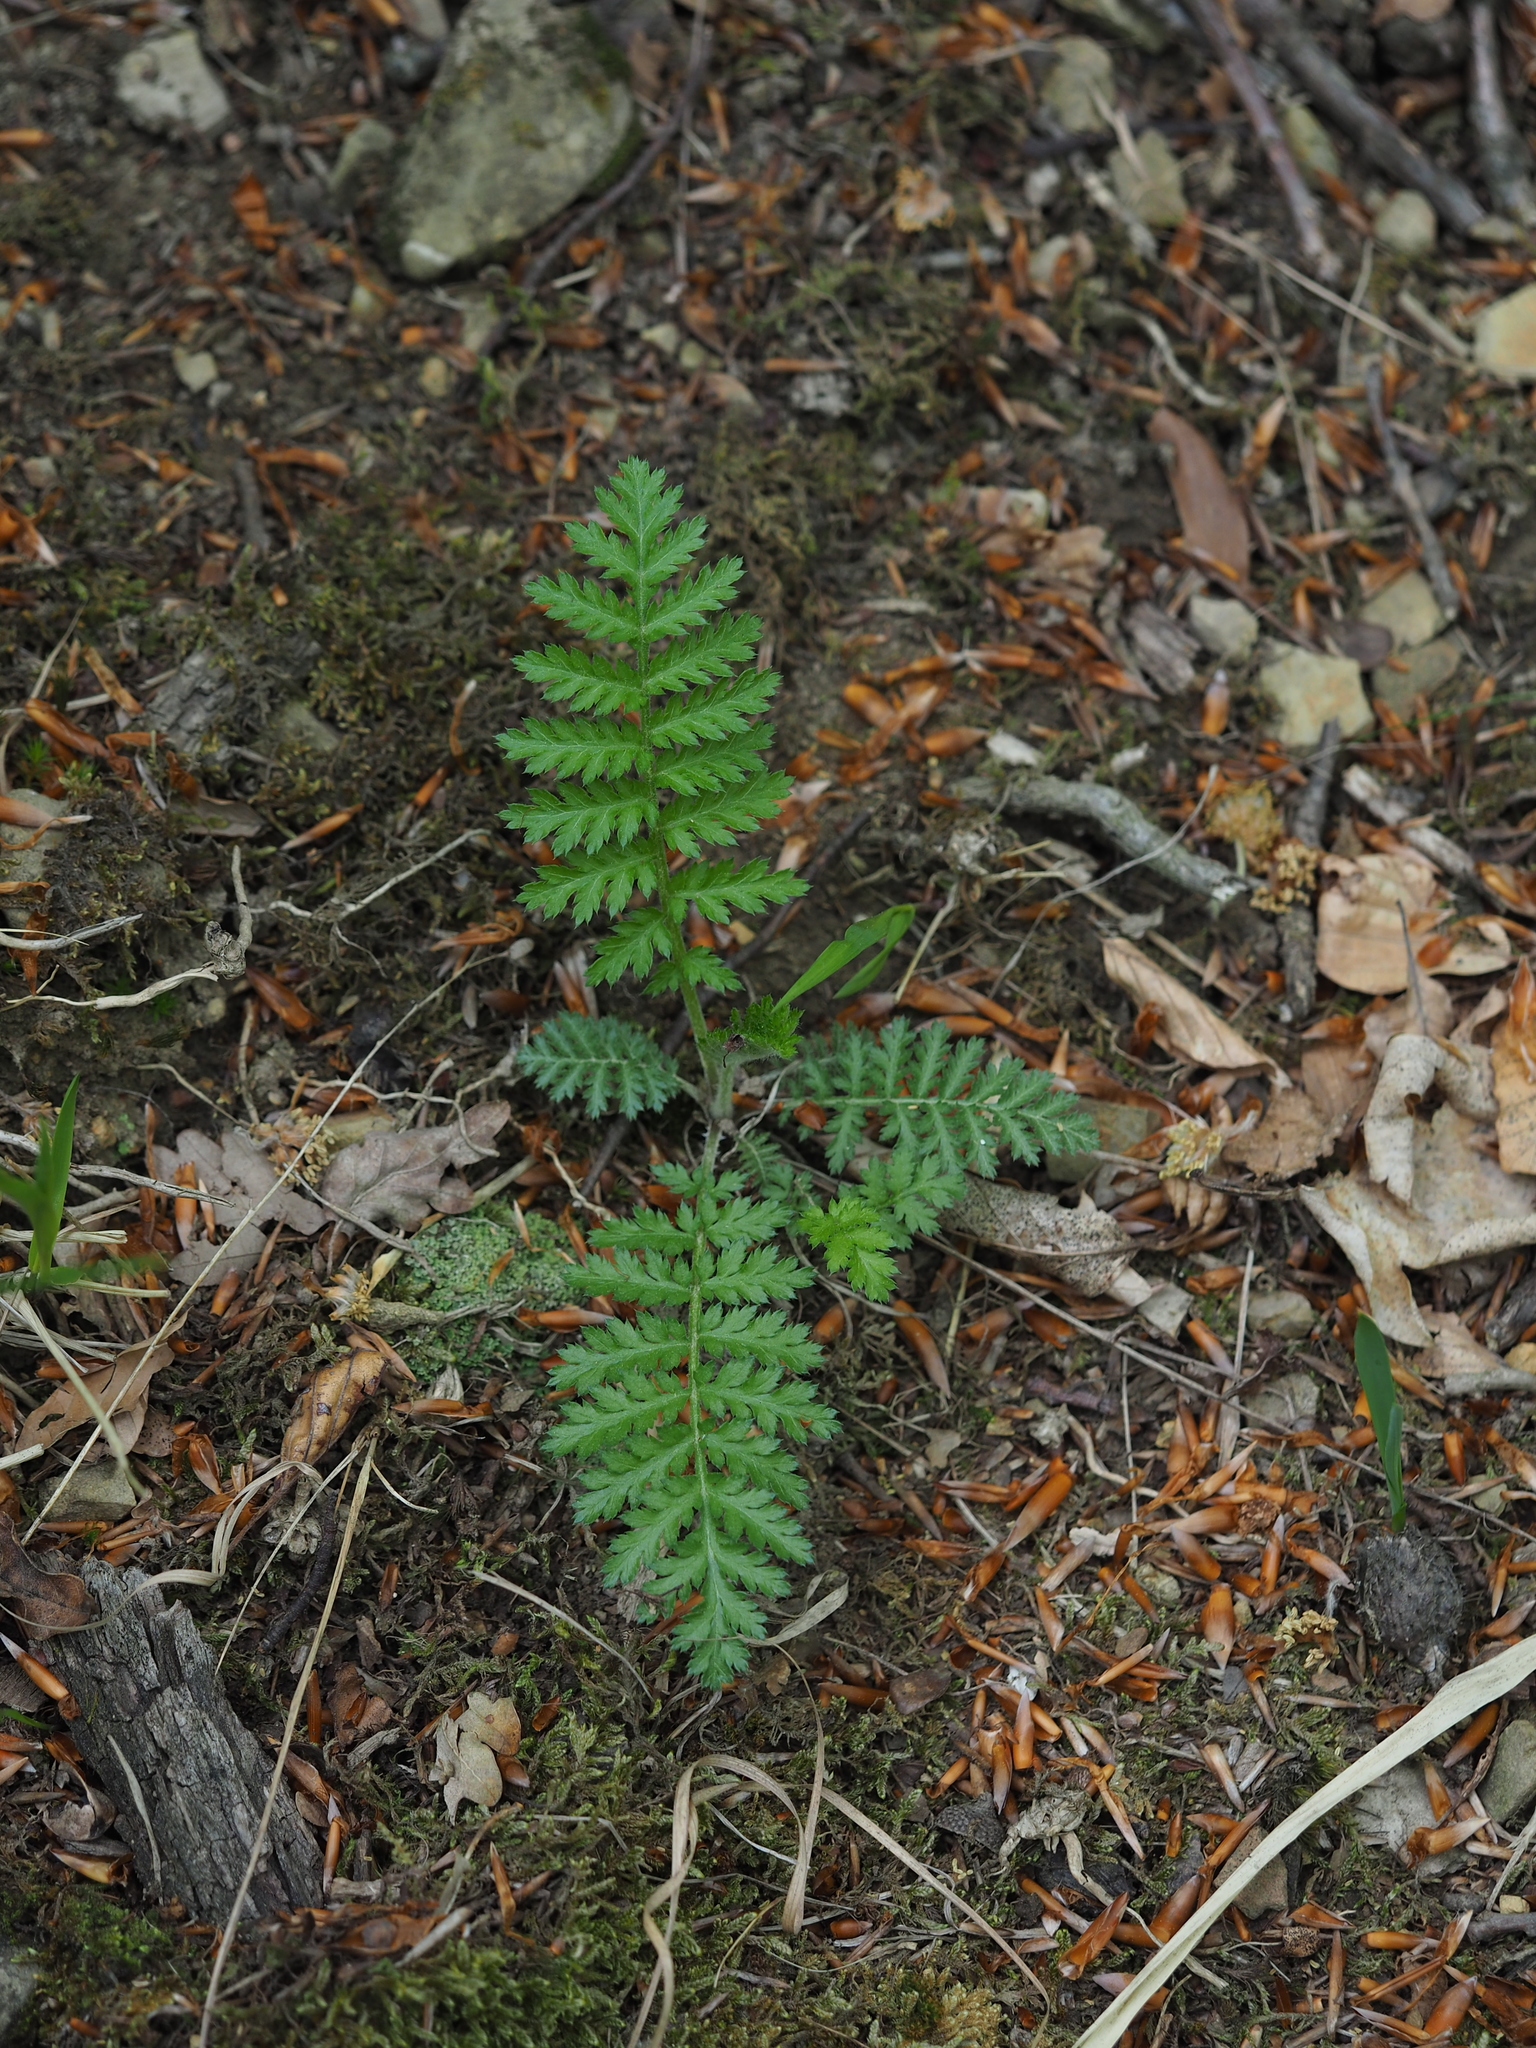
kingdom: Plantae
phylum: Tracheophyta
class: Magnoliopsida
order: Asterales
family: Asteraceae
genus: Tanacetum
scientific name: Tanacetum corymbosum
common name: Scentless feverfew
